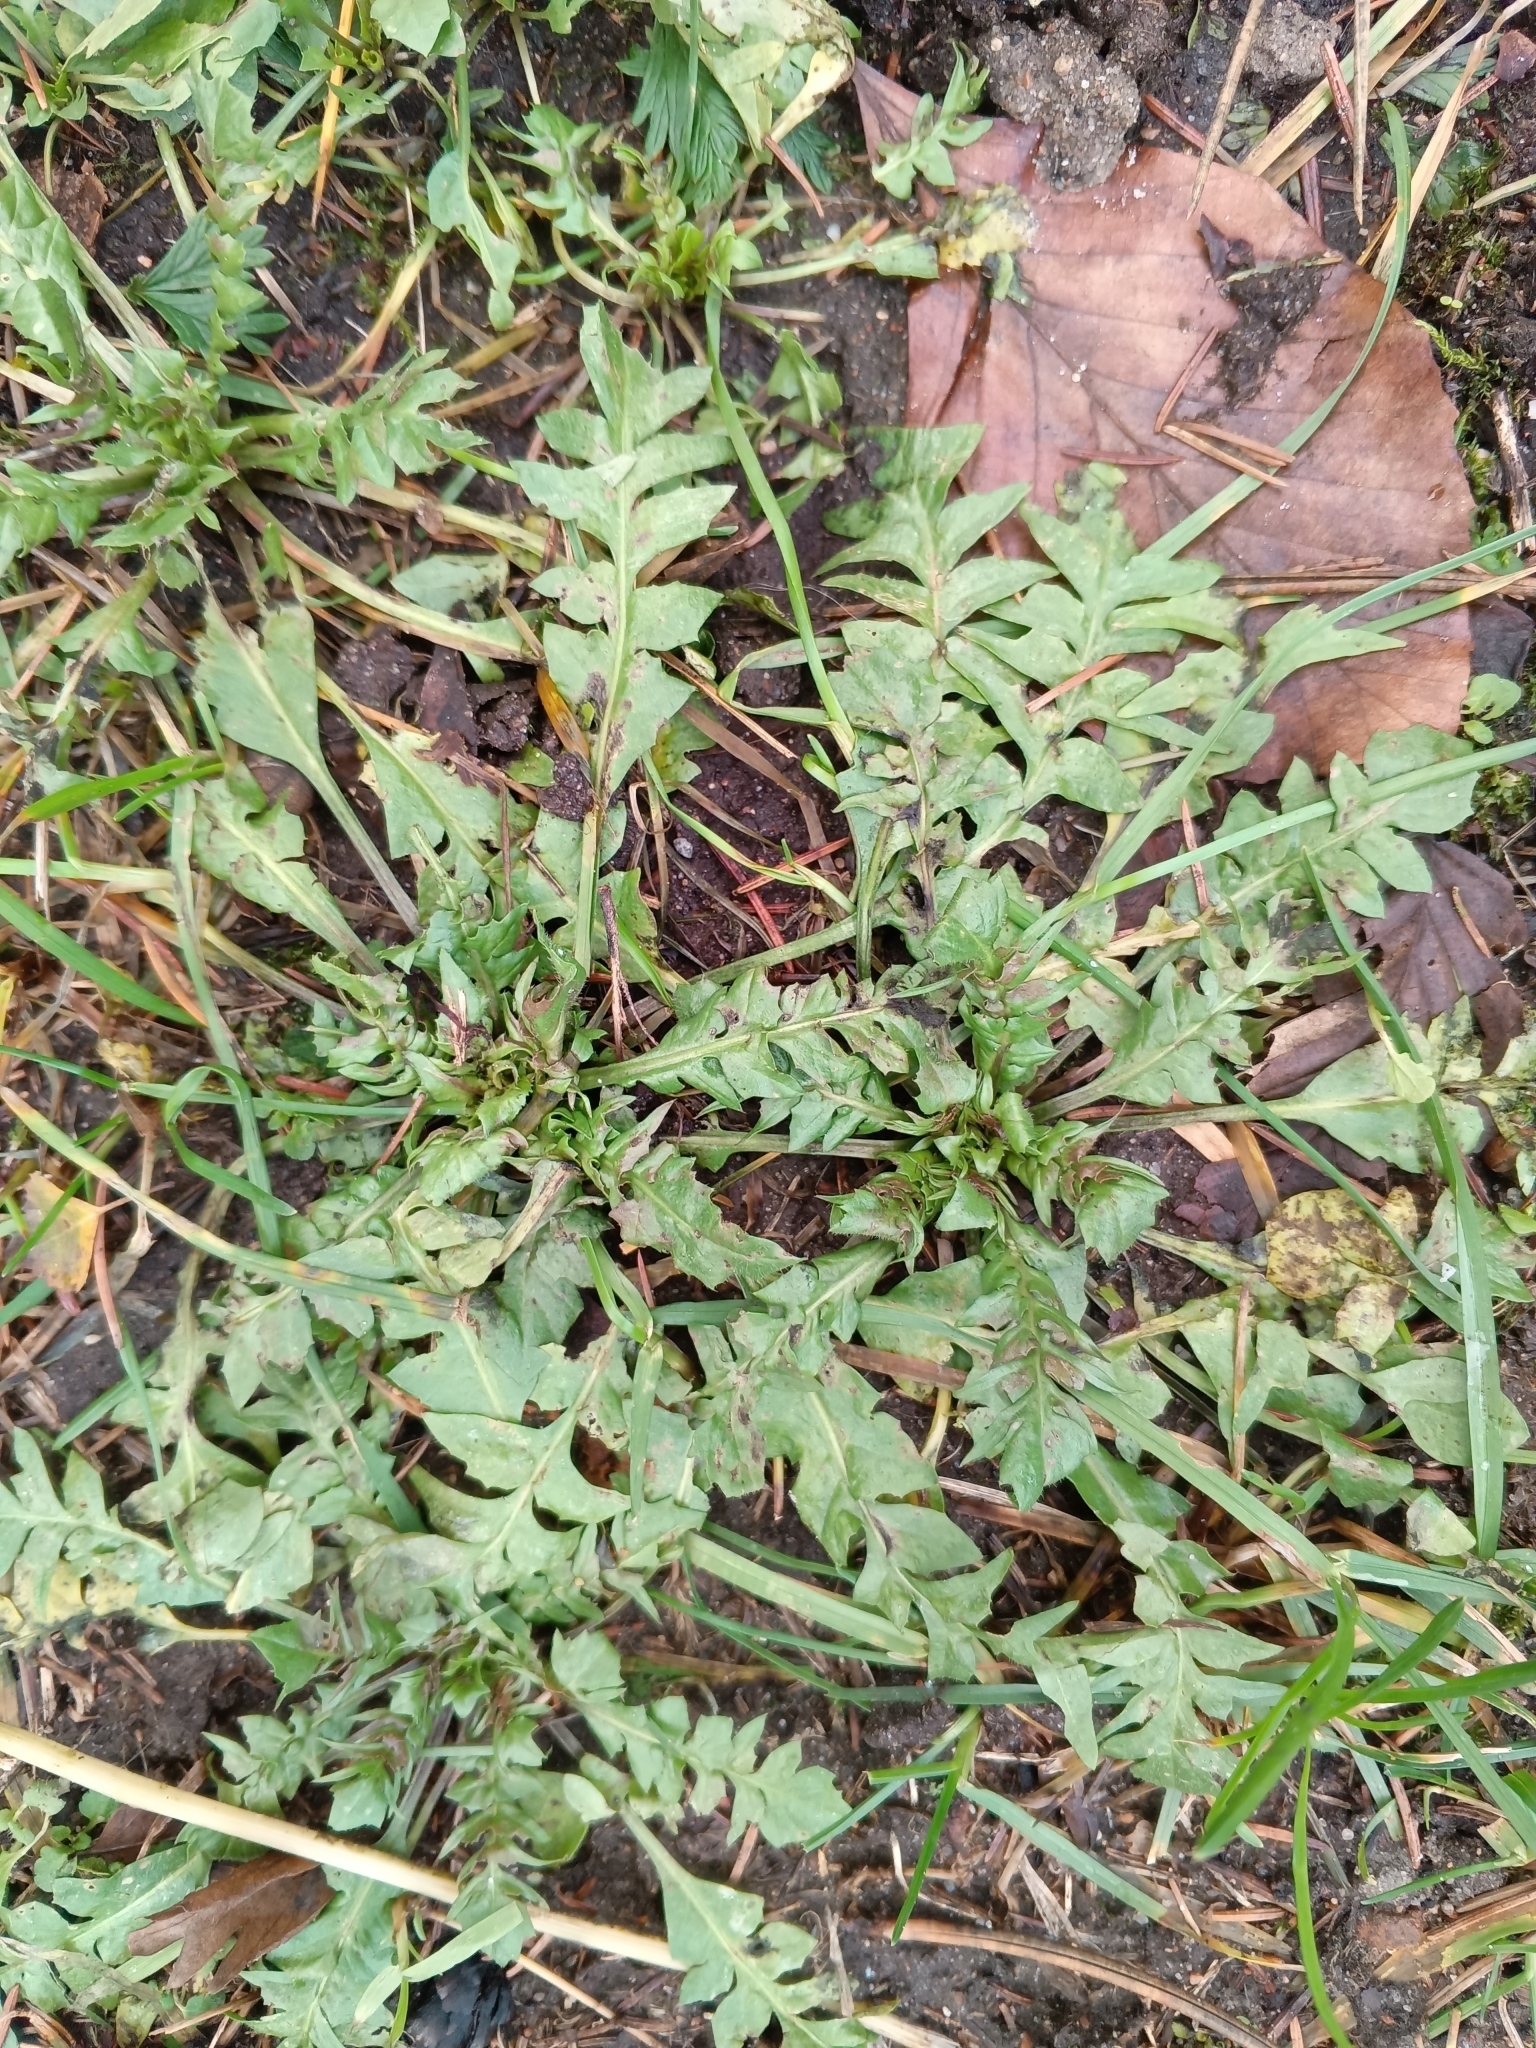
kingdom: Plantae
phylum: Tracheophyta
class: Magnoliopsida
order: Brassicales
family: Brassicaceae
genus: Capsella
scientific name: Capsella bursa-pastoris
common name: Shepherd's purse
